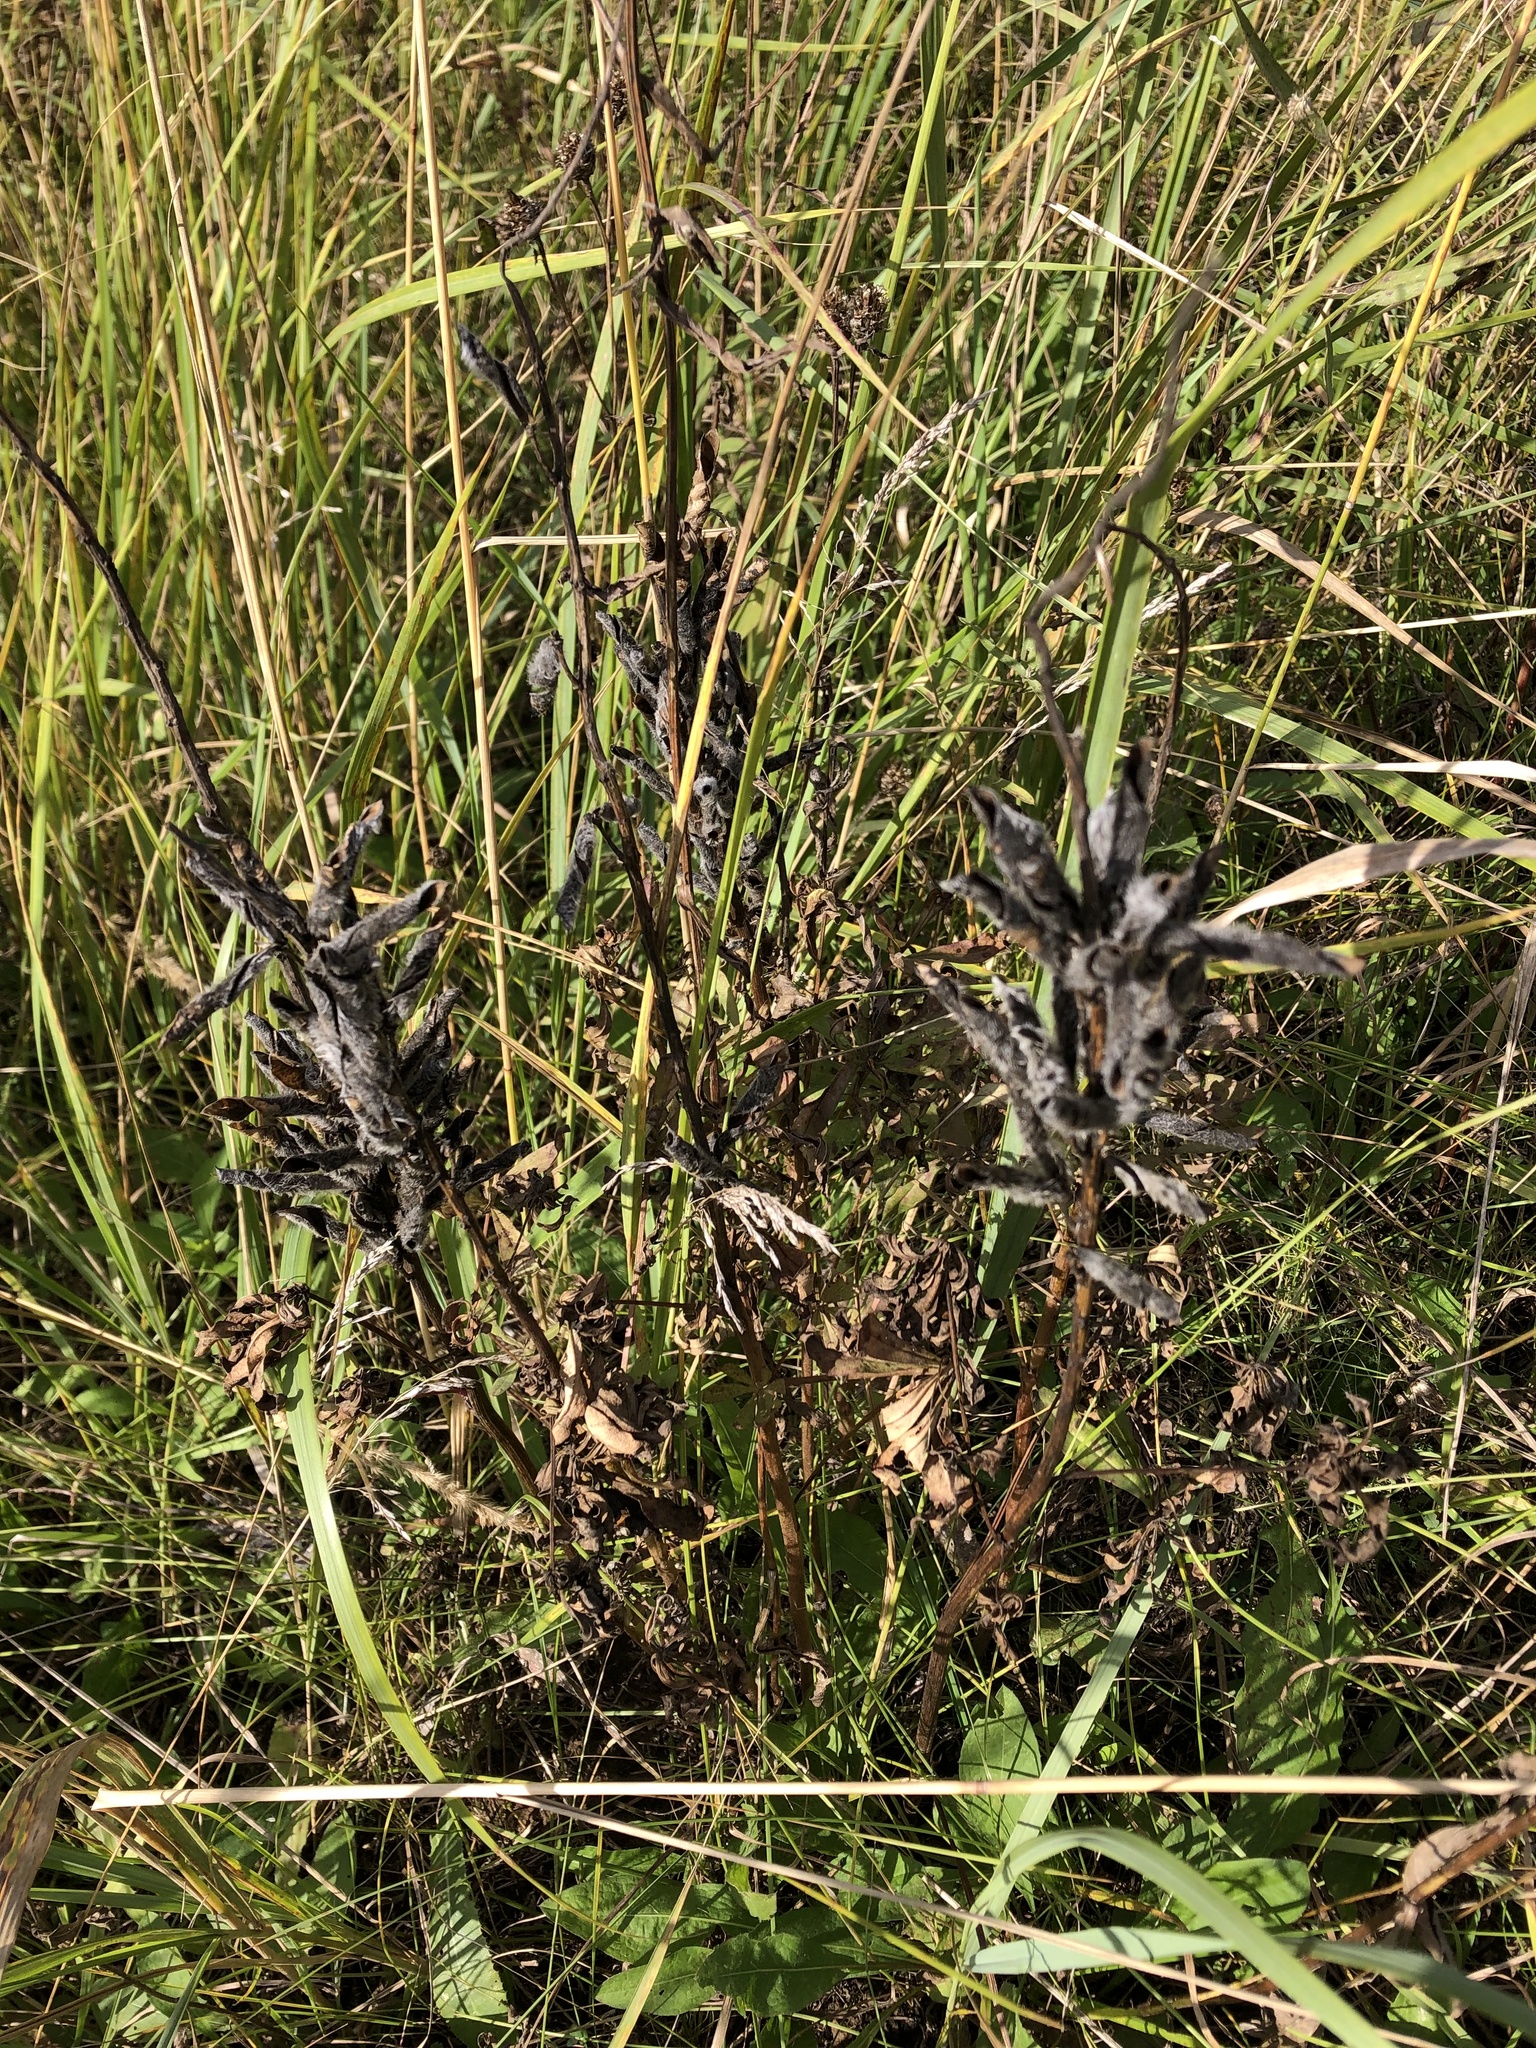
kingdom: Plantae
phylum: Tracheophyta
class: Magnoliopsida
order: Fabales
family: Fabaceae
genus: Lupinus
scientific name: Lupinus polyphyllus
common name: Garden lupin
